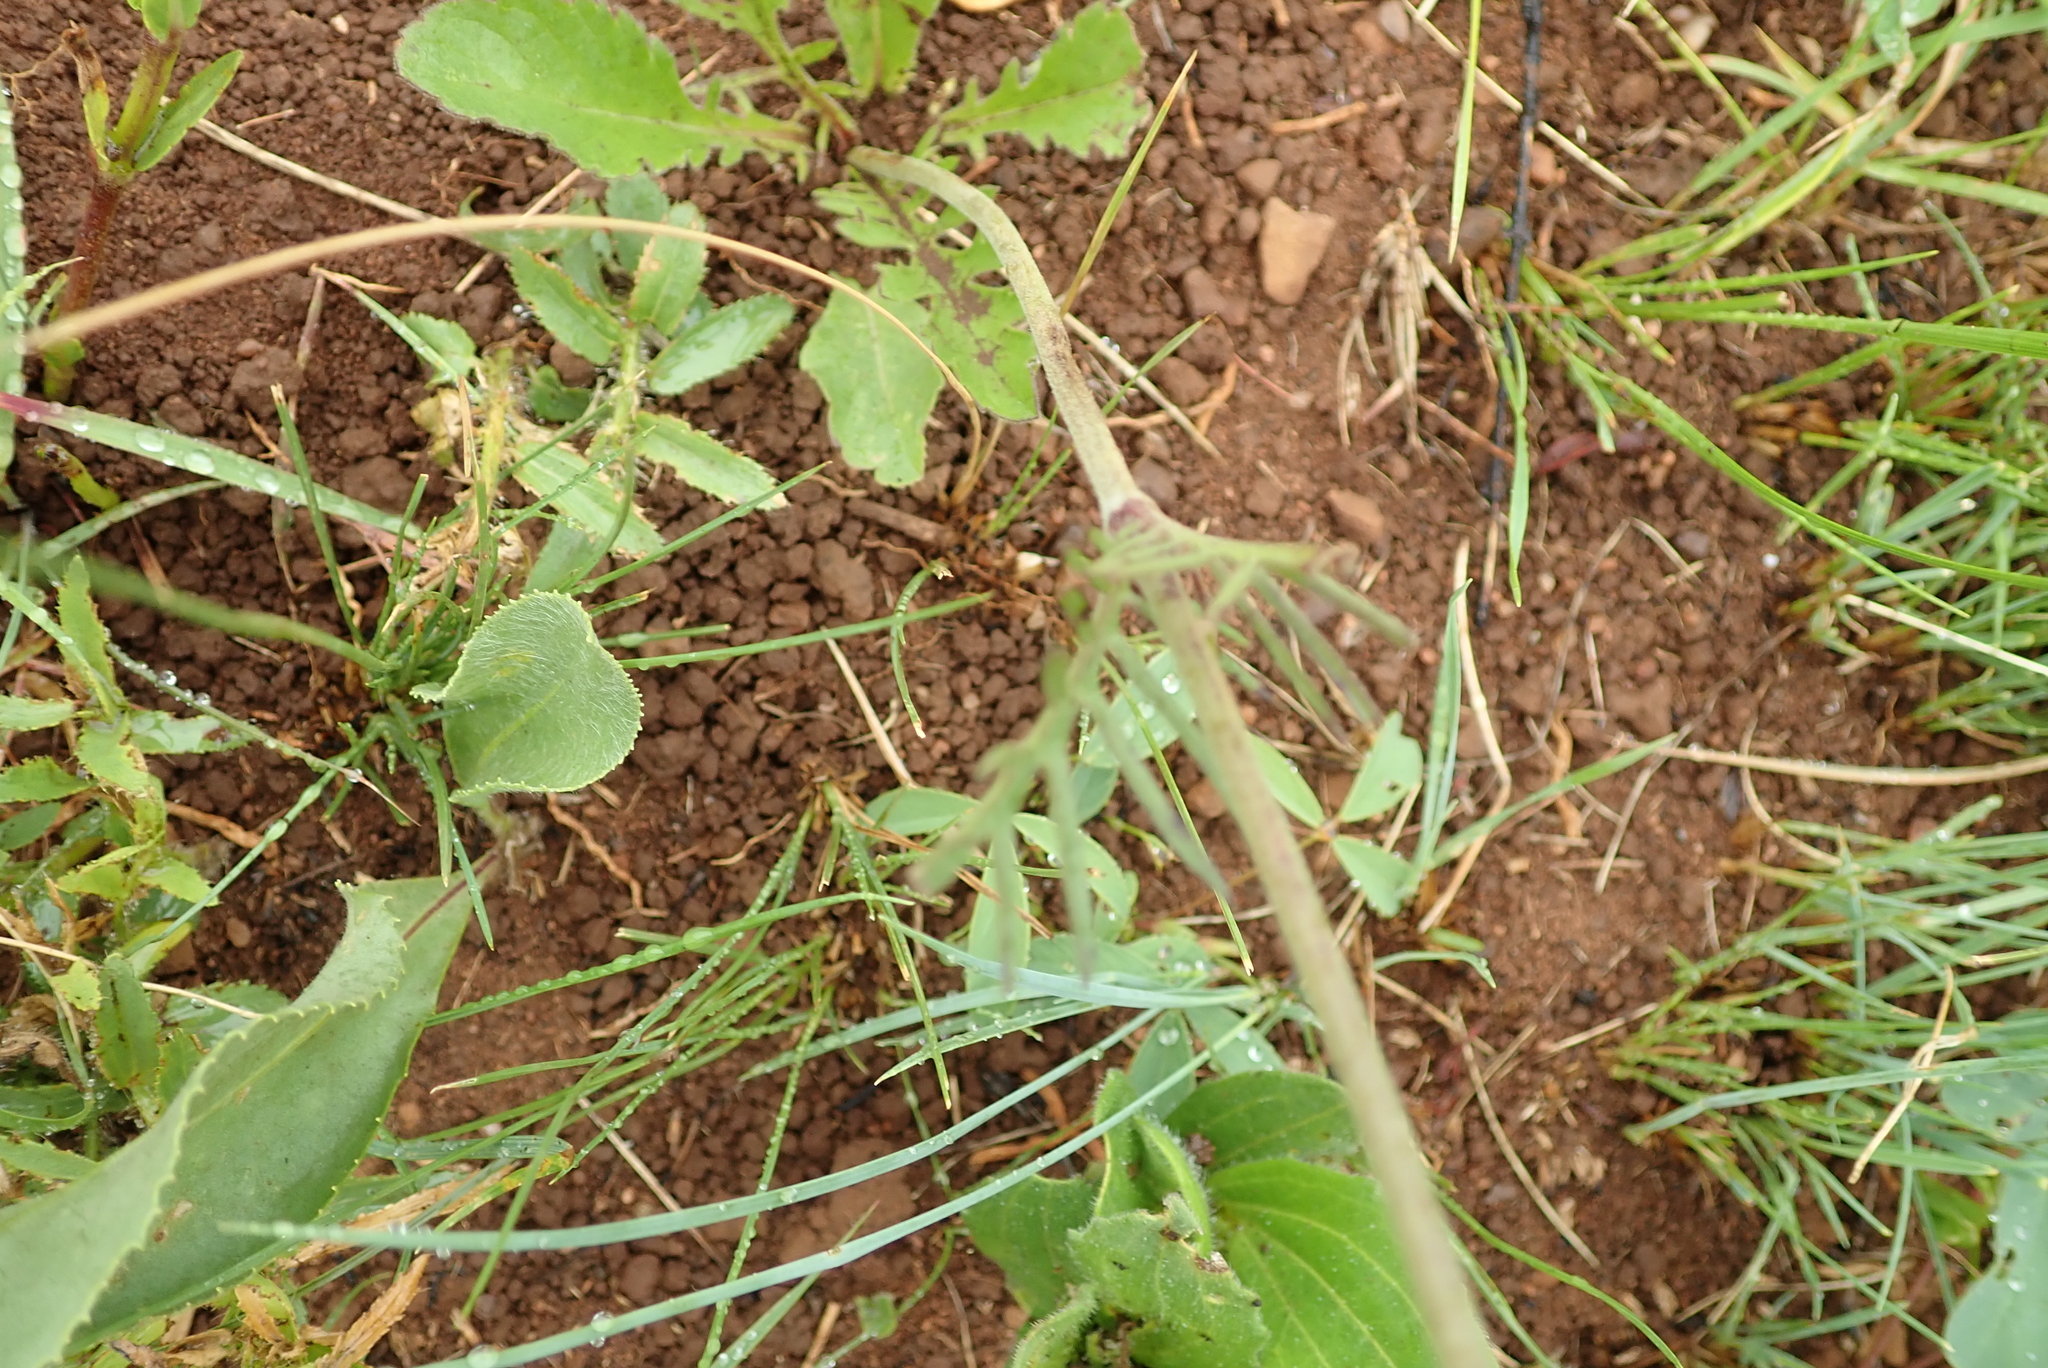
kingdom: Plantae
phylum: Tracheophyta
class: Magnoliopsida
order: Dipsacales
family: Caprifoliaceae
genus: Scabiosa
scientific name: Scabiosa columbaria
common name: Small scabious
